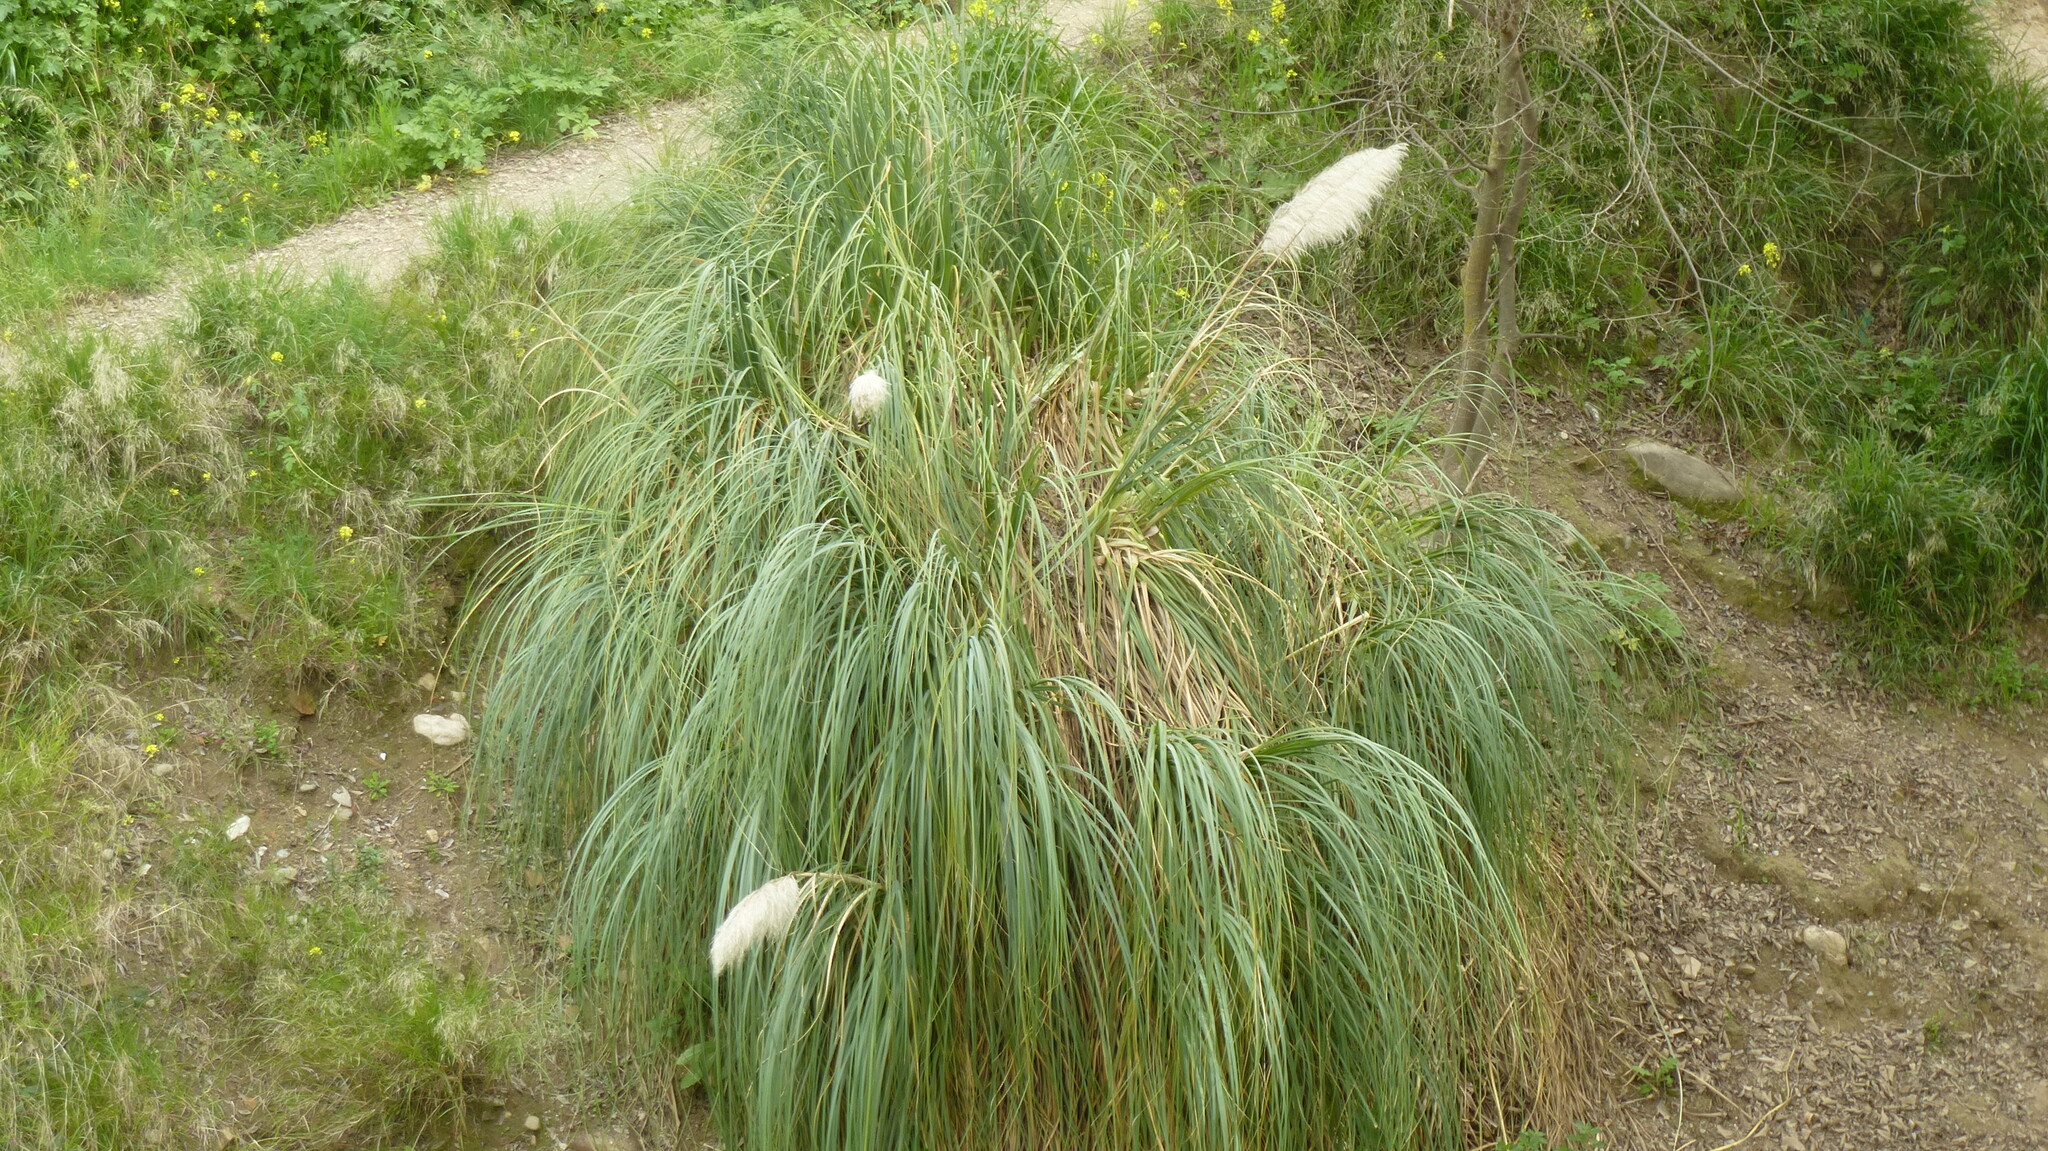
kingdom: Plantae
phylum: Tracheophyta
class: Liliopsida
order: Poales
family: Poaceae
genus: Cortaderia
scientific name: Cortaderia selloana
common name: Uruguayan pampas grass
